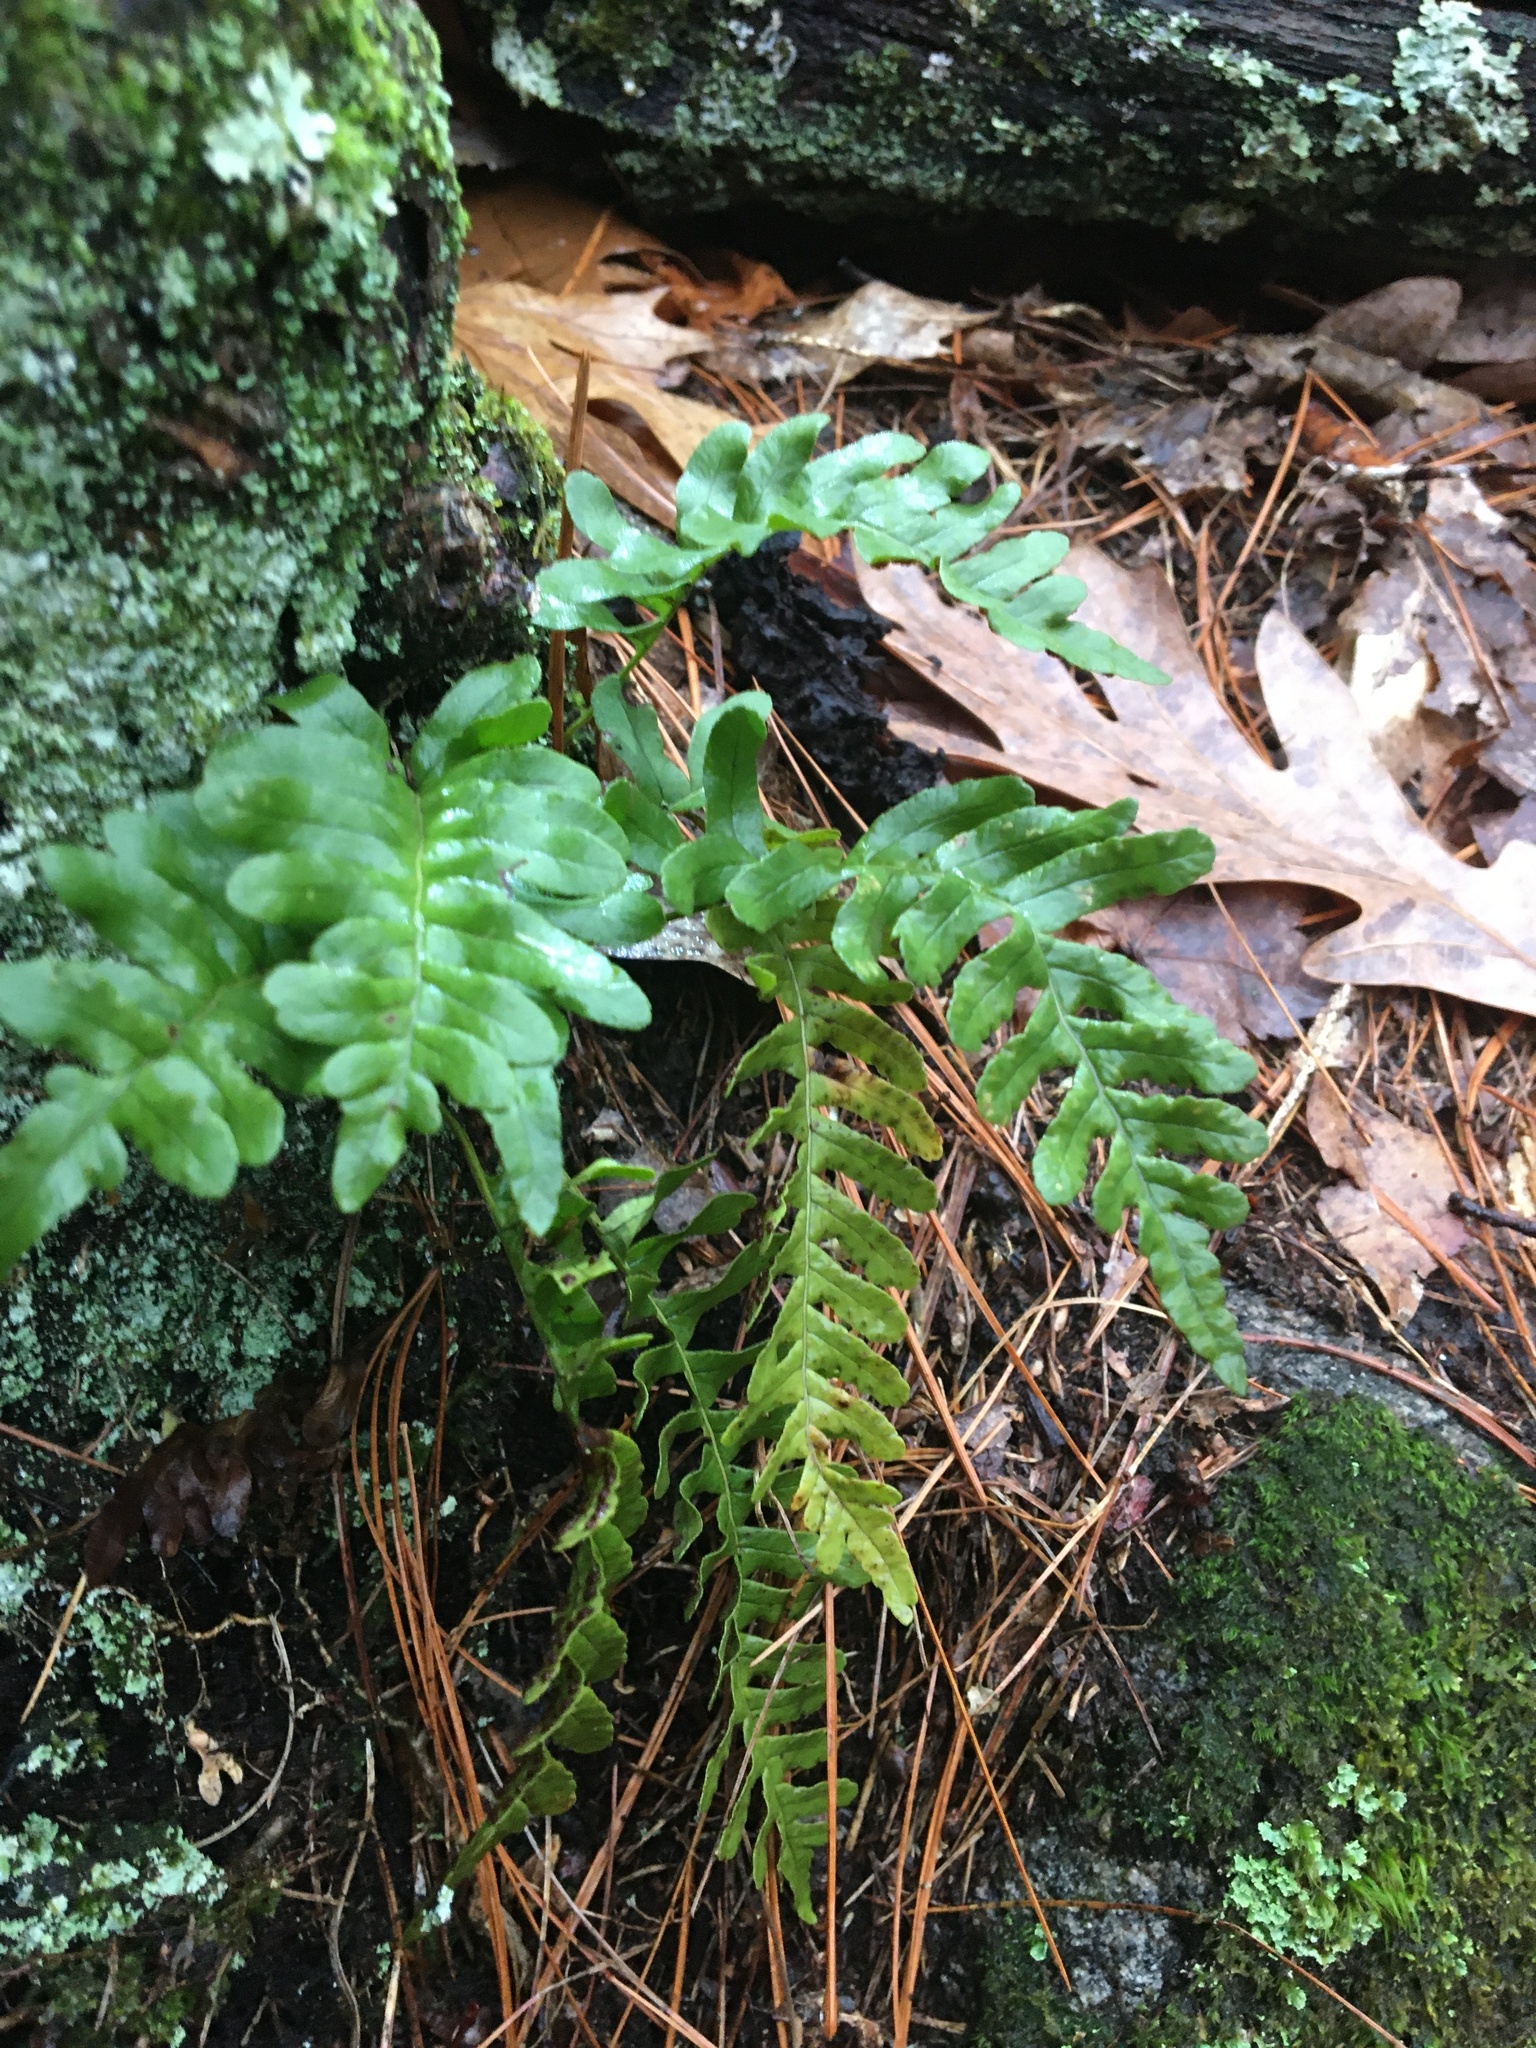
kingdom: Plantae
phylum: Tracheophyta
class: Polypodiopsida
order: Polypodiales
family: Polypodiaceae
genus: Polypodium
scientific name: Polypodium
